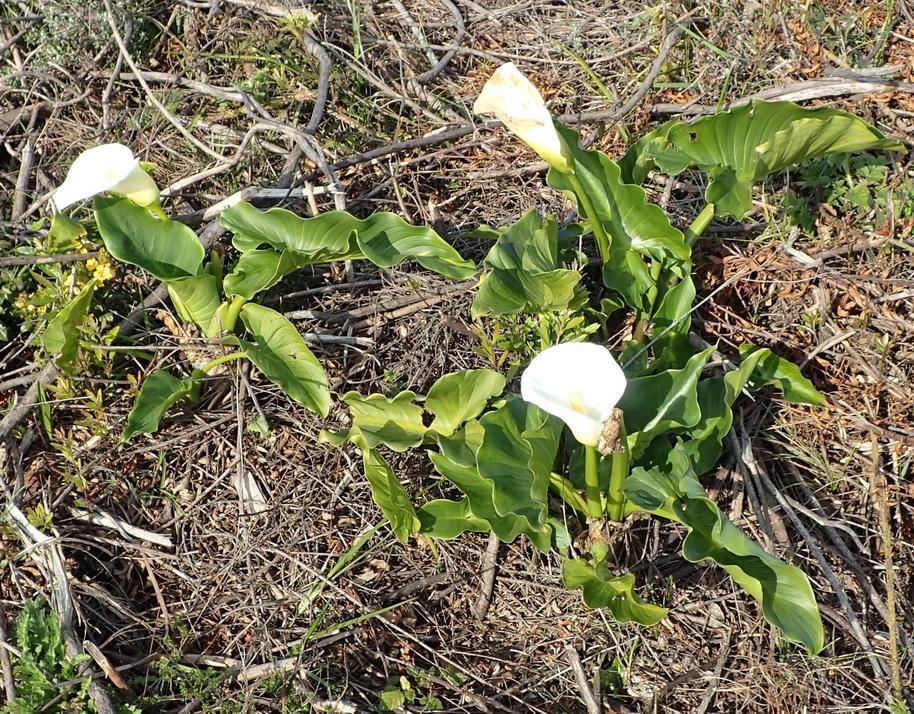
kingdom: Plantae
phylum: Tracheophyta
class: Liliopsida
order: Alismatales
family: Araceae
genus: Zantedeschia
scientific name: Zantedeschia aethiopica
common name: Altar-lily
